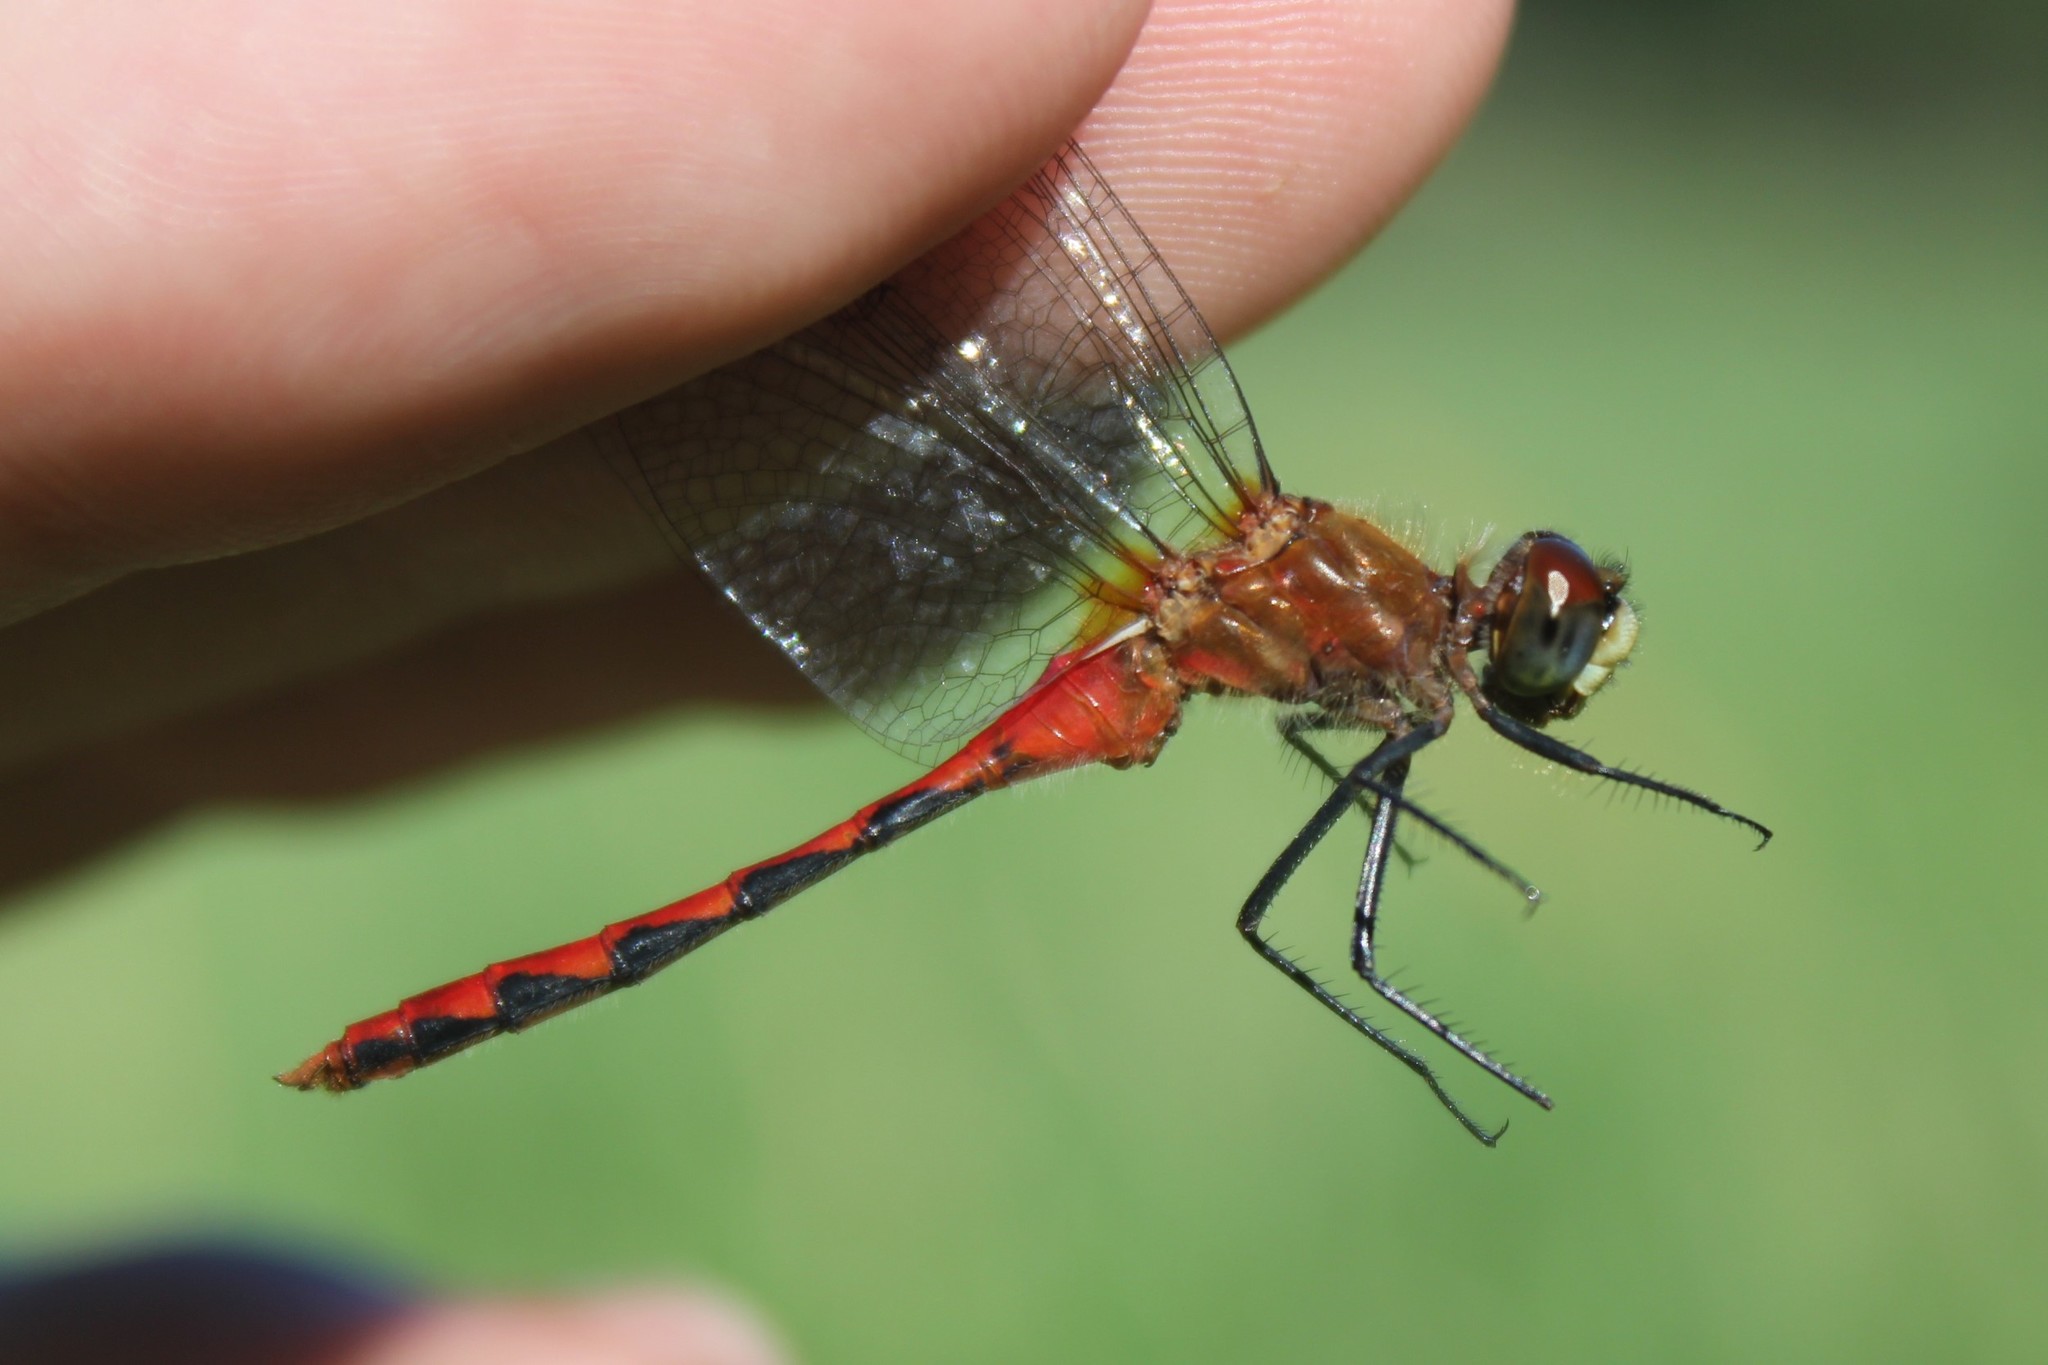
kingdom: Animalia
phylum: Arthropoda
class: Insecta
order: Odonata
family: Libellulidae
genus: Sympetrum
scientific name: Sympetrum obtrusum
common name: White-faced meadowhawk
